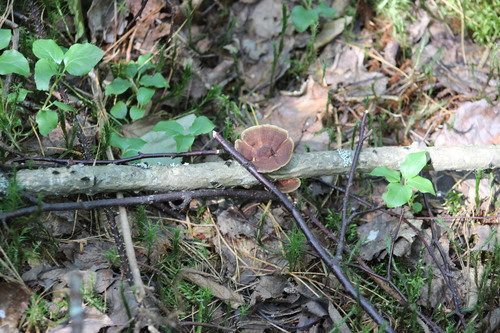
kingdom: Fungi
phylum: Basidiomycota
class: Agaricomycetes
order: Polyporales
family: Polyporaceae
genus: Daedaleopsis
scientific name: Daedaleopsis confragosa
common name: Blushing bracket
